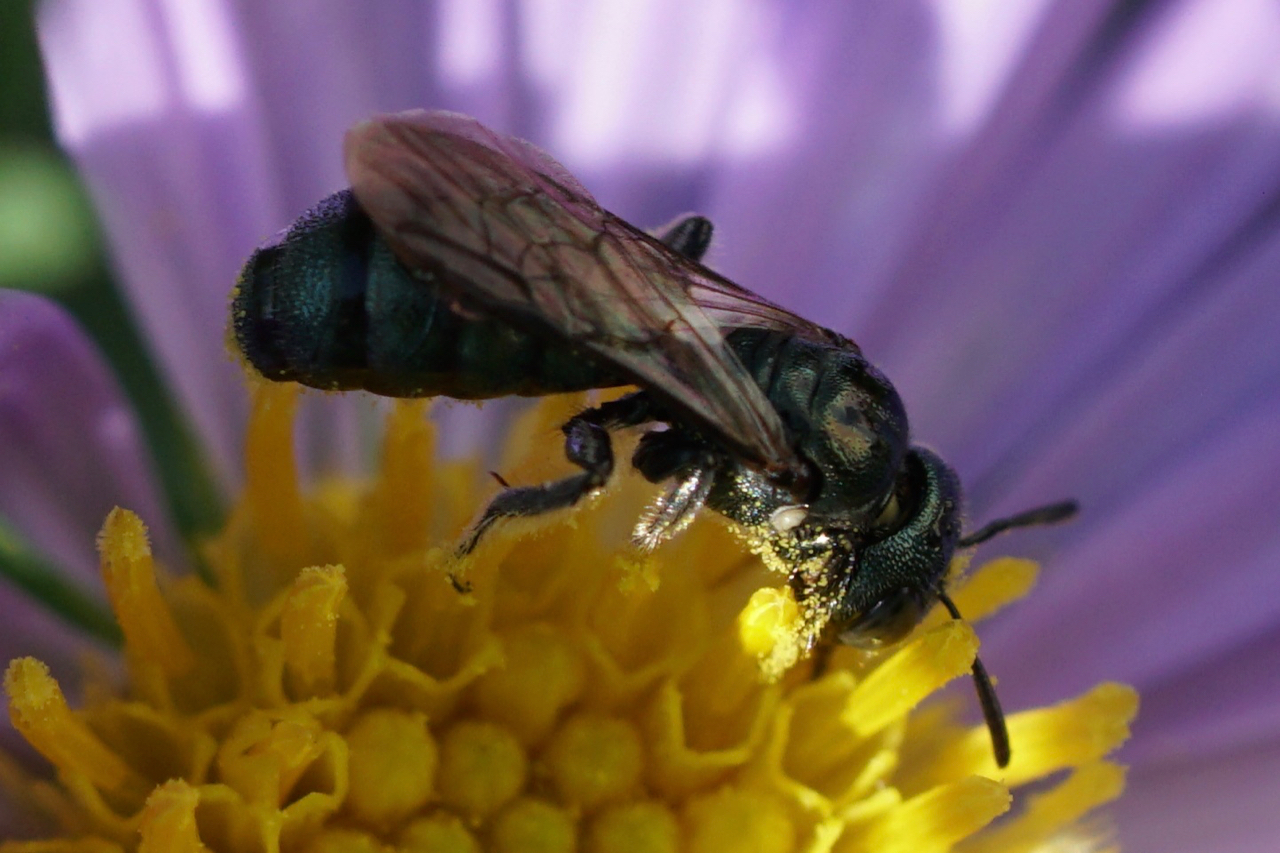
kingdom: Animalia
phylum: Arthropoda
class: Insecta
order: Hymenoptera
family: Apidae
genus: Zadontomerus
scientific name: Zadontomerus
